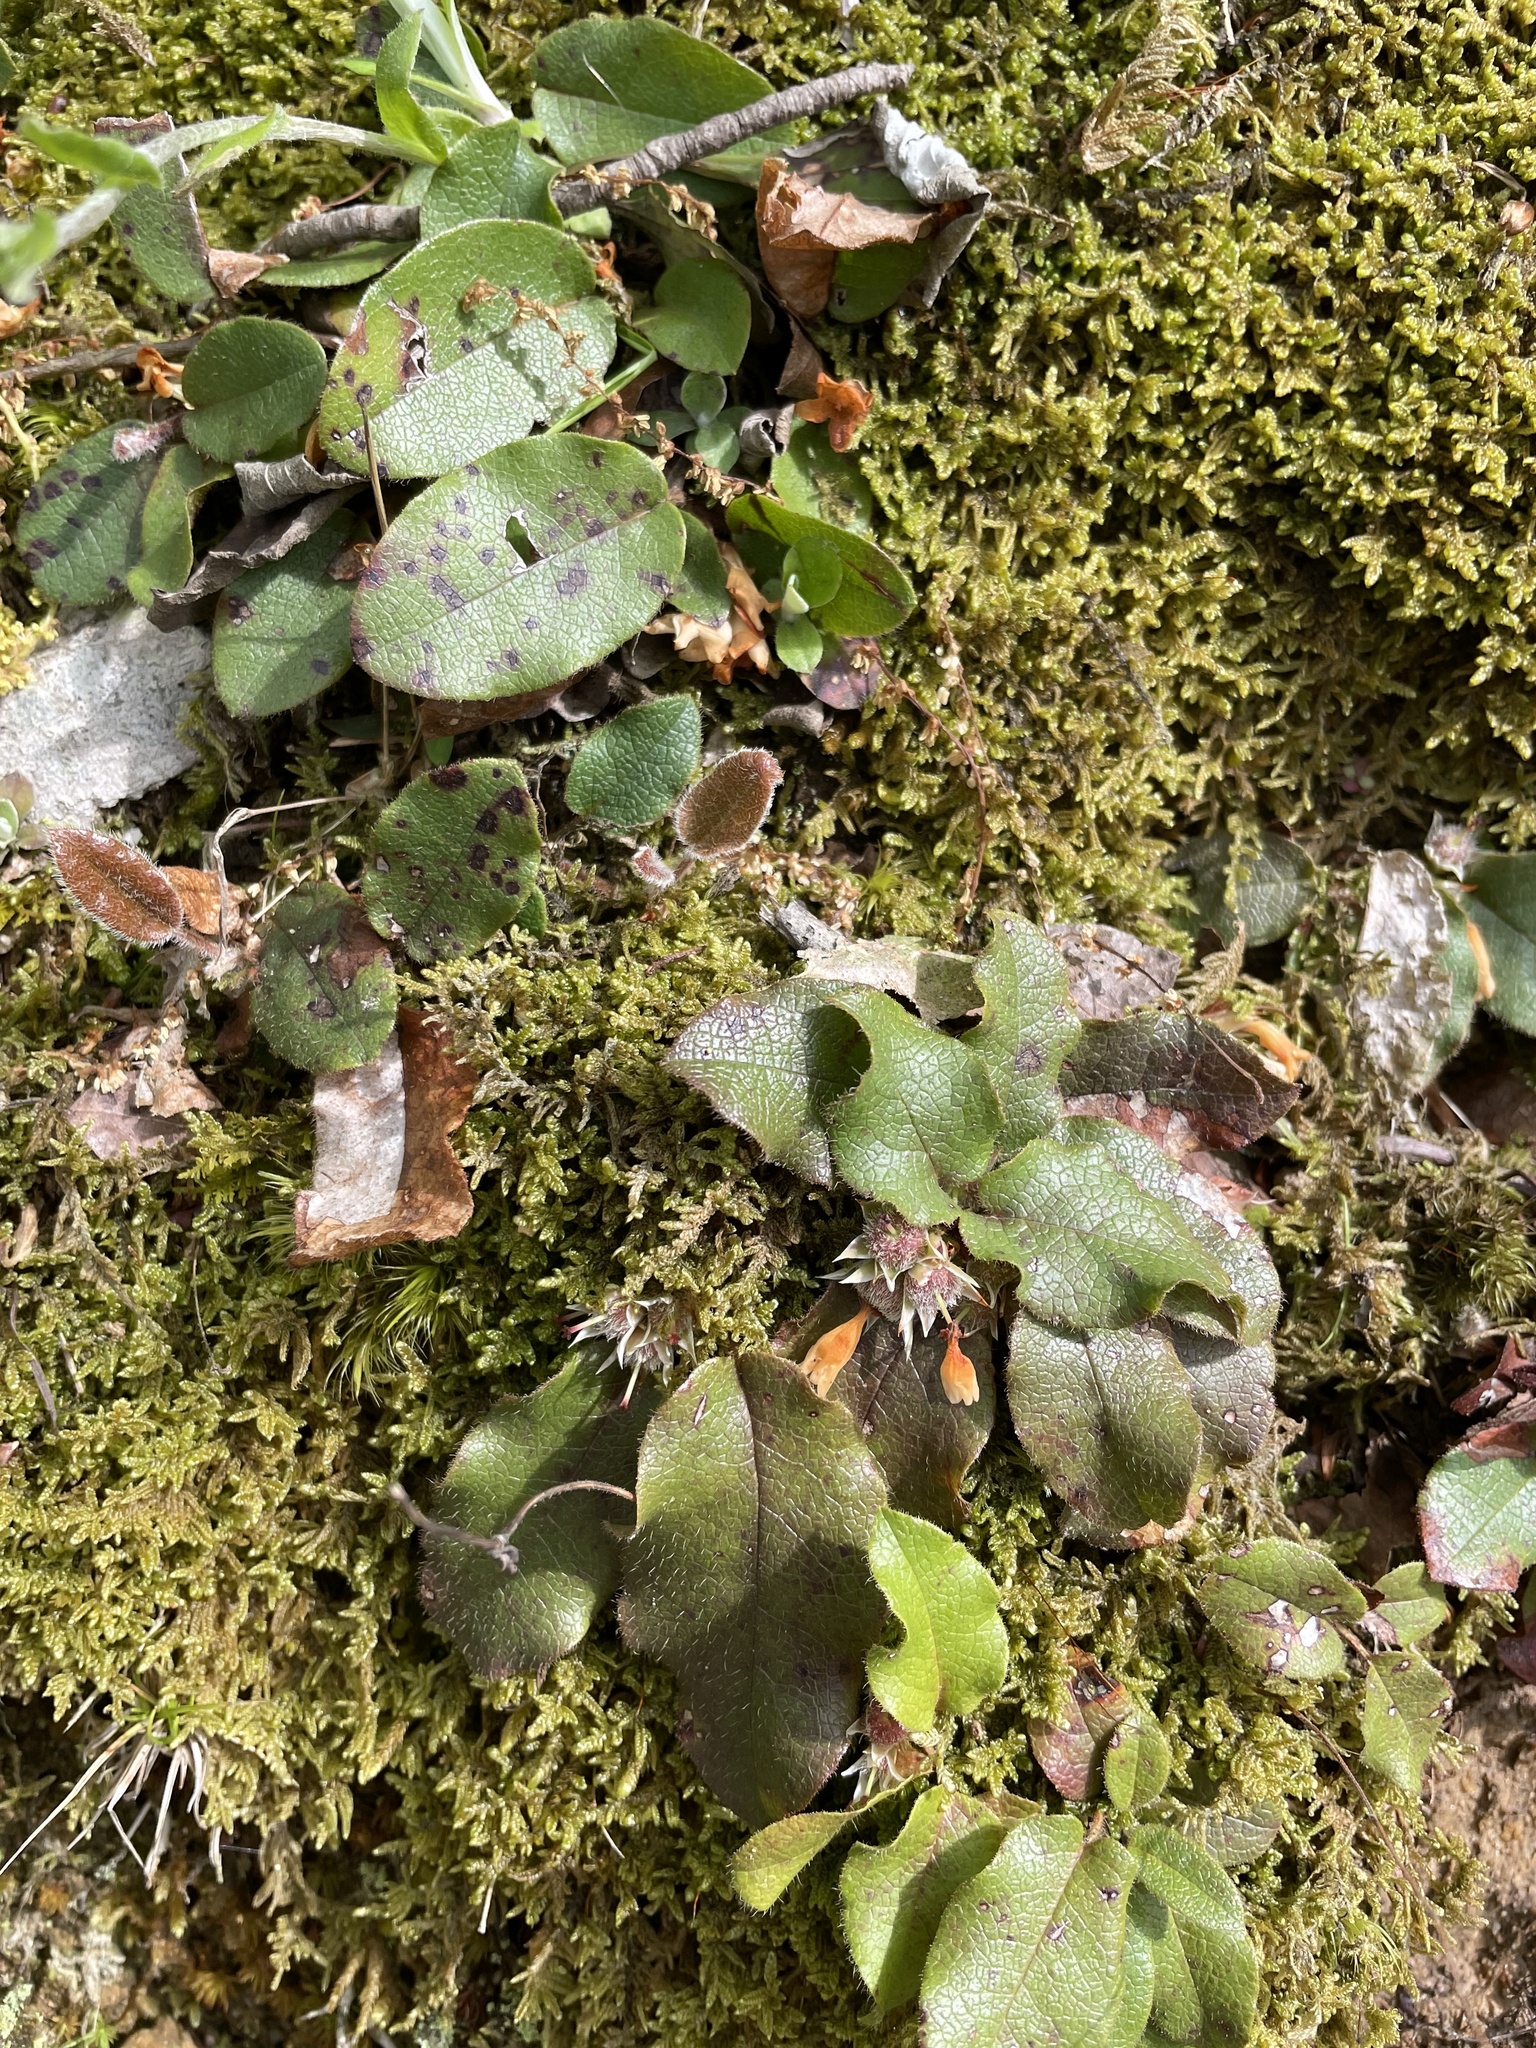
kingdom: Plantae
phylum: Tracheophyta
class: Magnoliopsida
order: Ericales
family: Ericaceae
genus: Epigaea
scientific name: Epigaea repens
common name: Gravelroot
